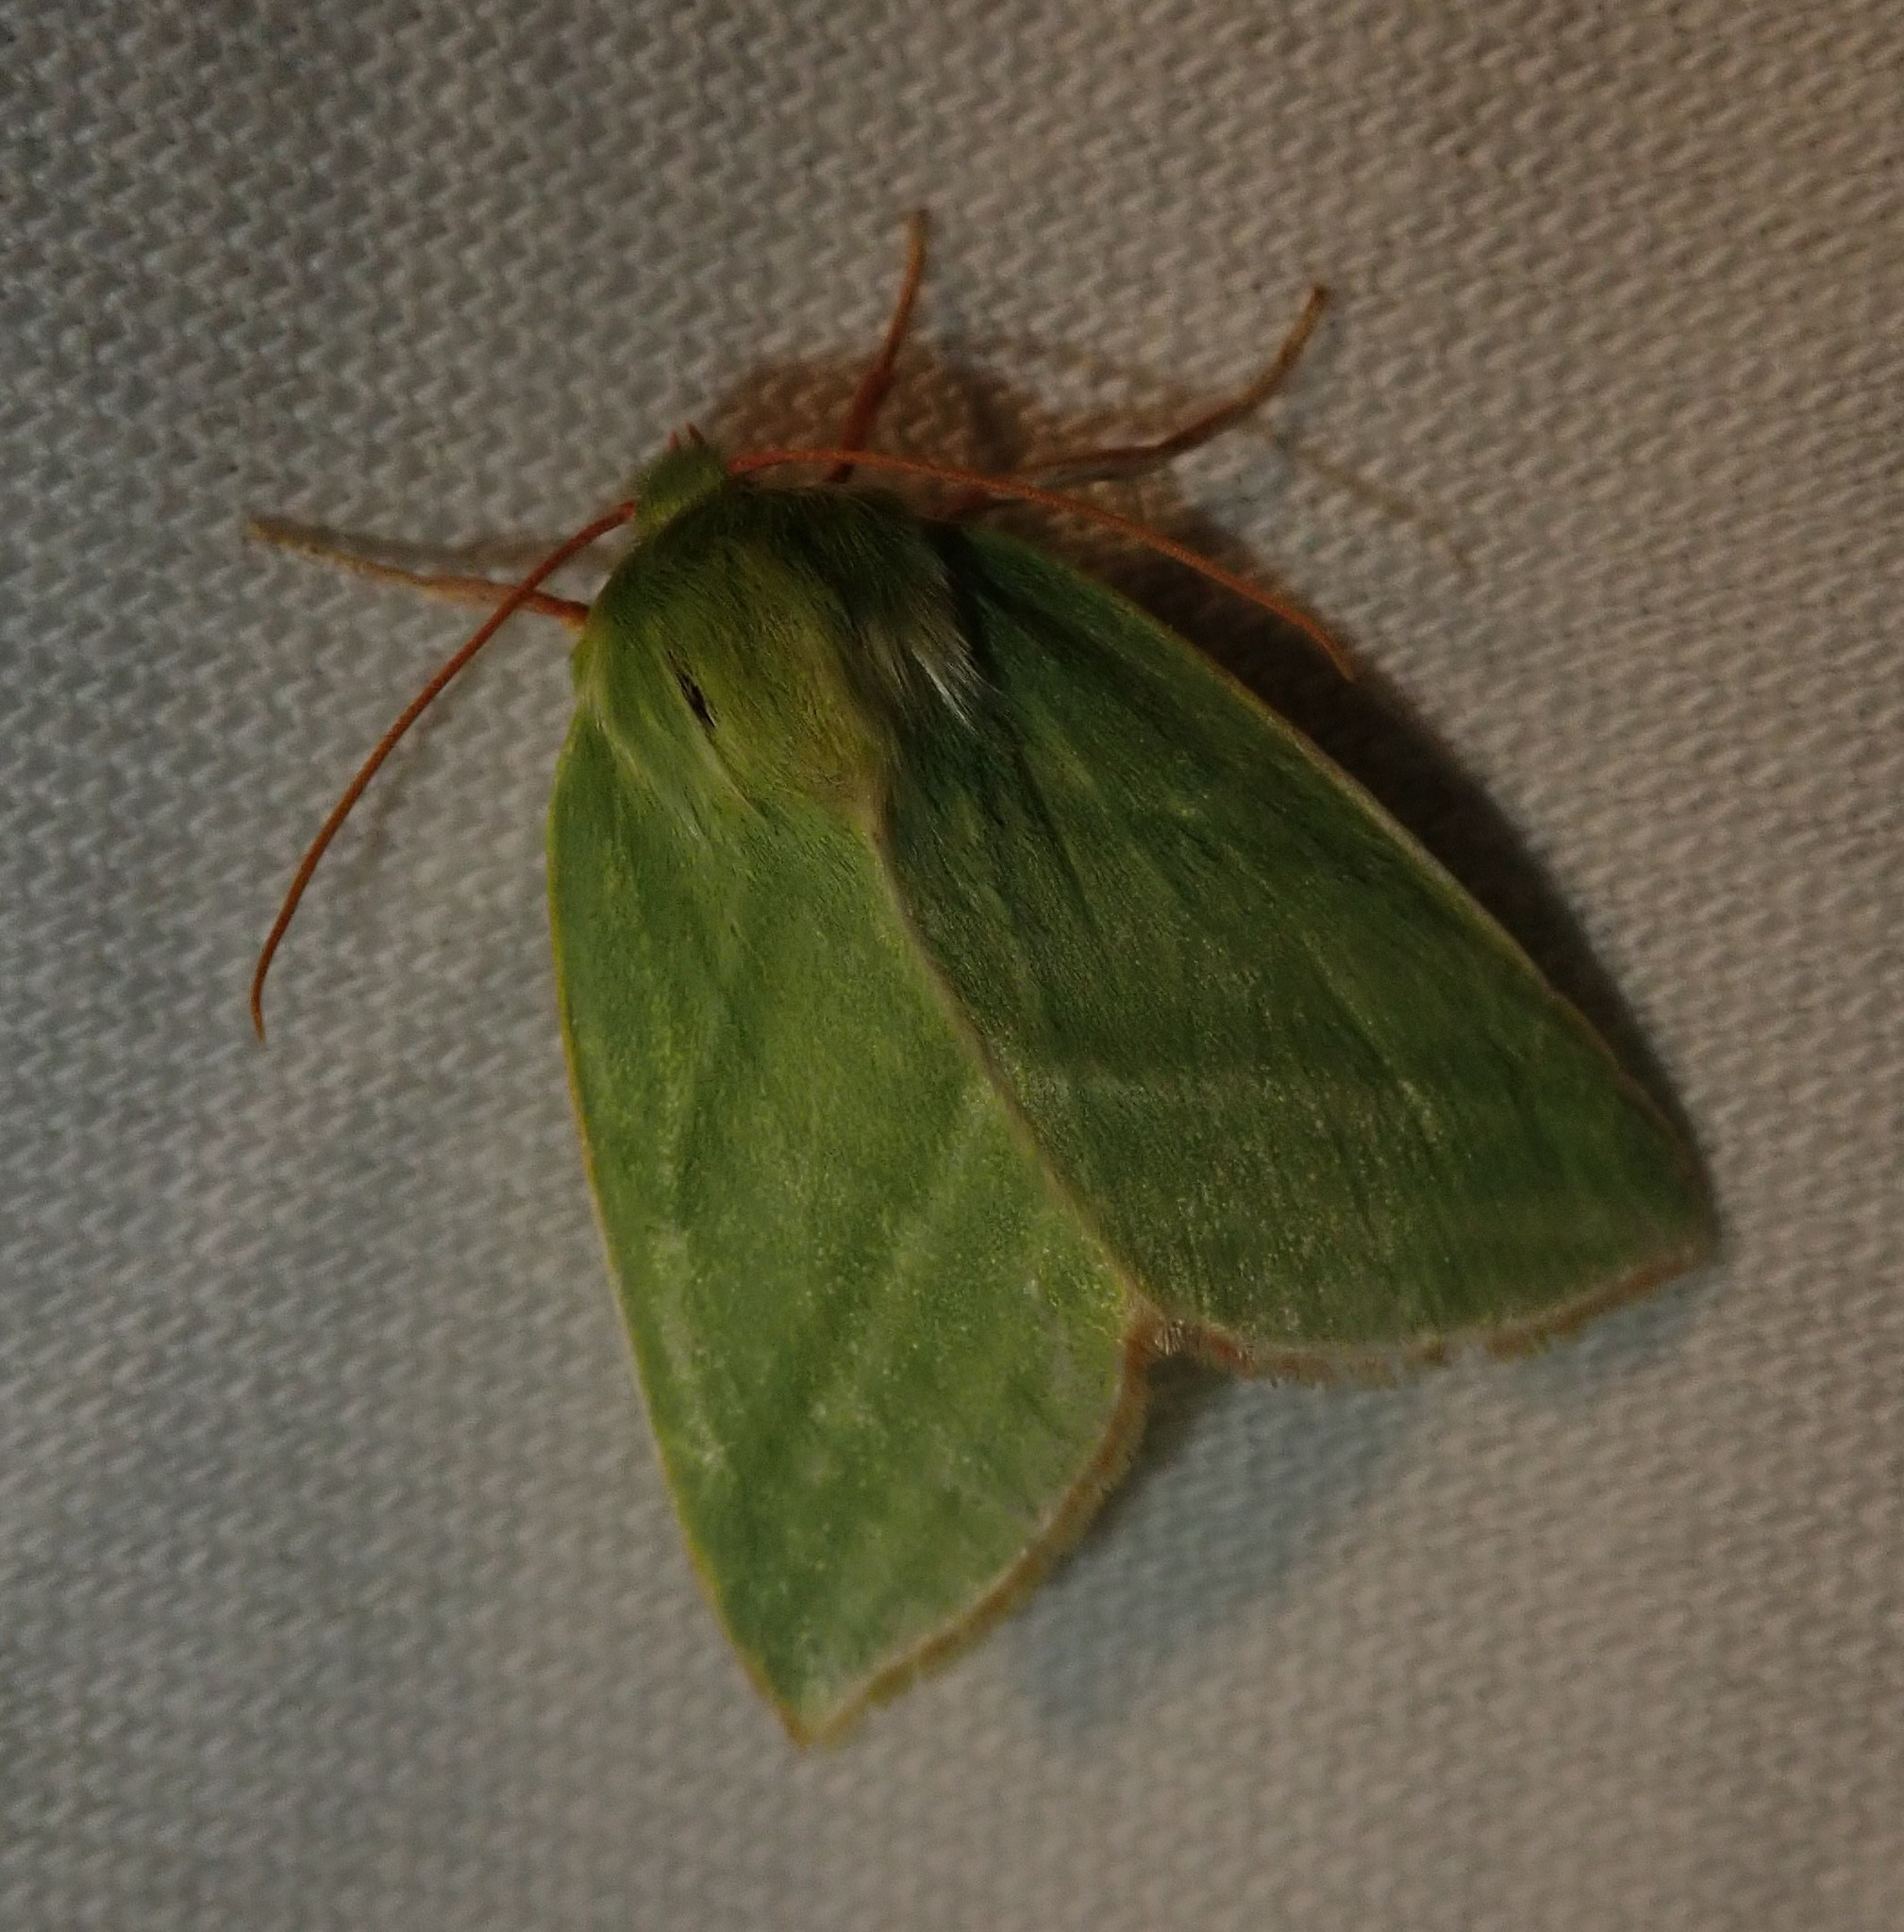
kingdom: Animalia
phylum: Arthropoda
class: Insecta
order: Lepidoptera
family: Nolidae
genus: Pseudoips
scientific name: Pseudoips prasinana
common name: Green silver-lines
